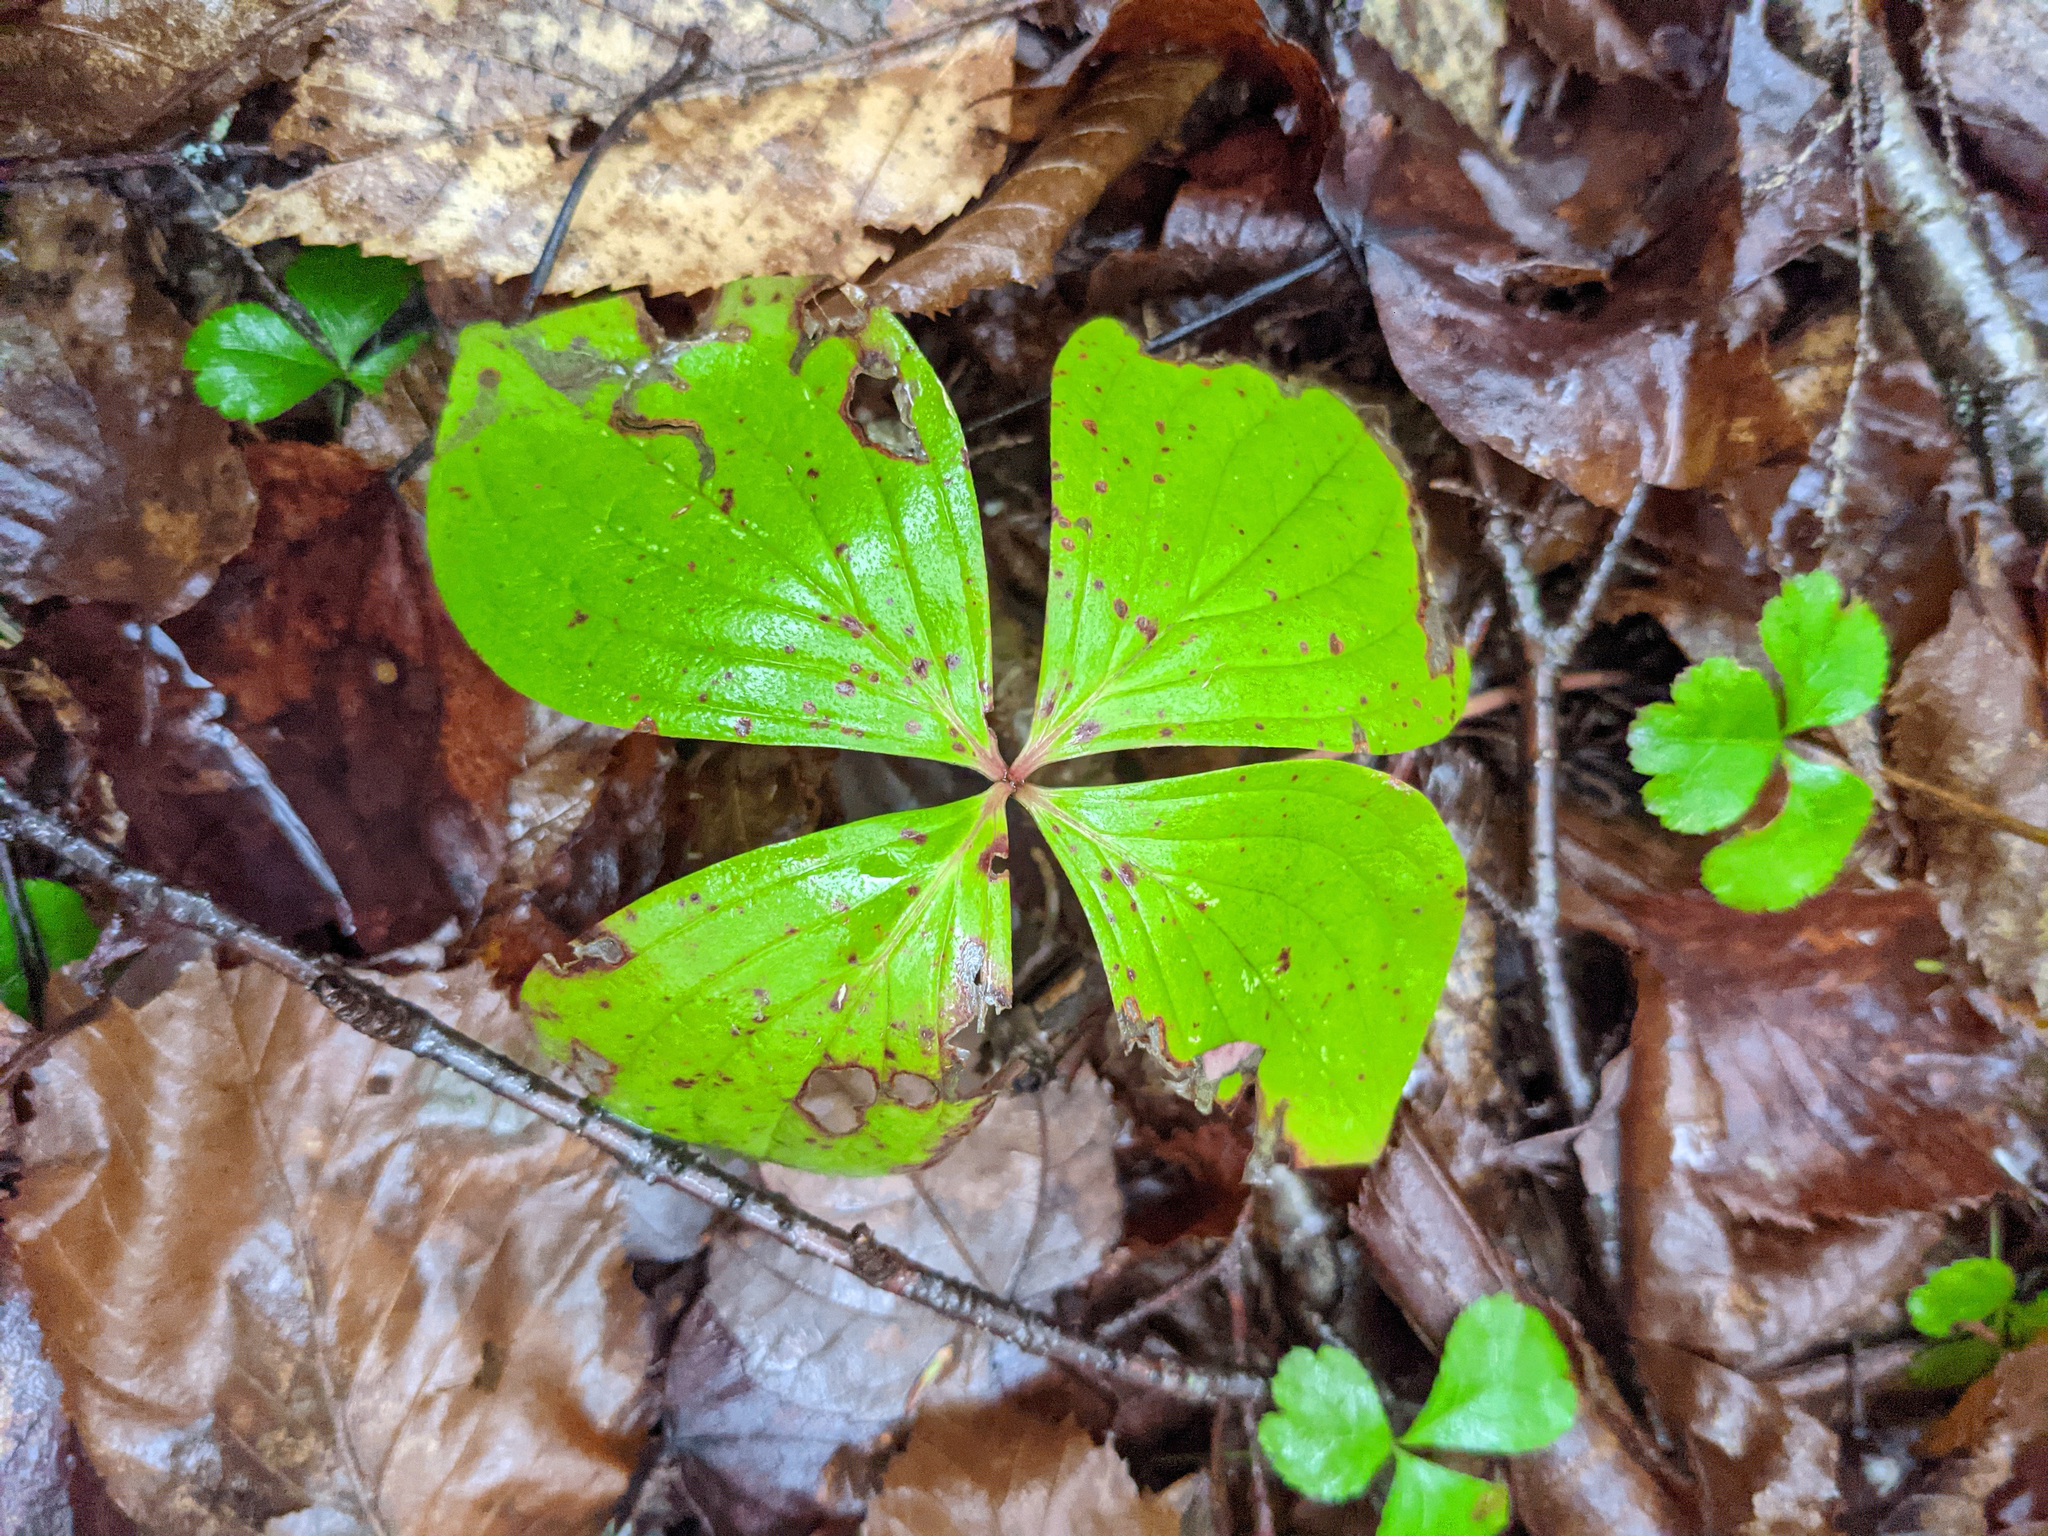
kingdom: Plantae
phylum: Tracheophyta
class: Magnoliopsida
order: Cornales
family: Cornaceae
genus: Cornus
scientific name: Cornus canadensis
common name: Creeping dogwood
